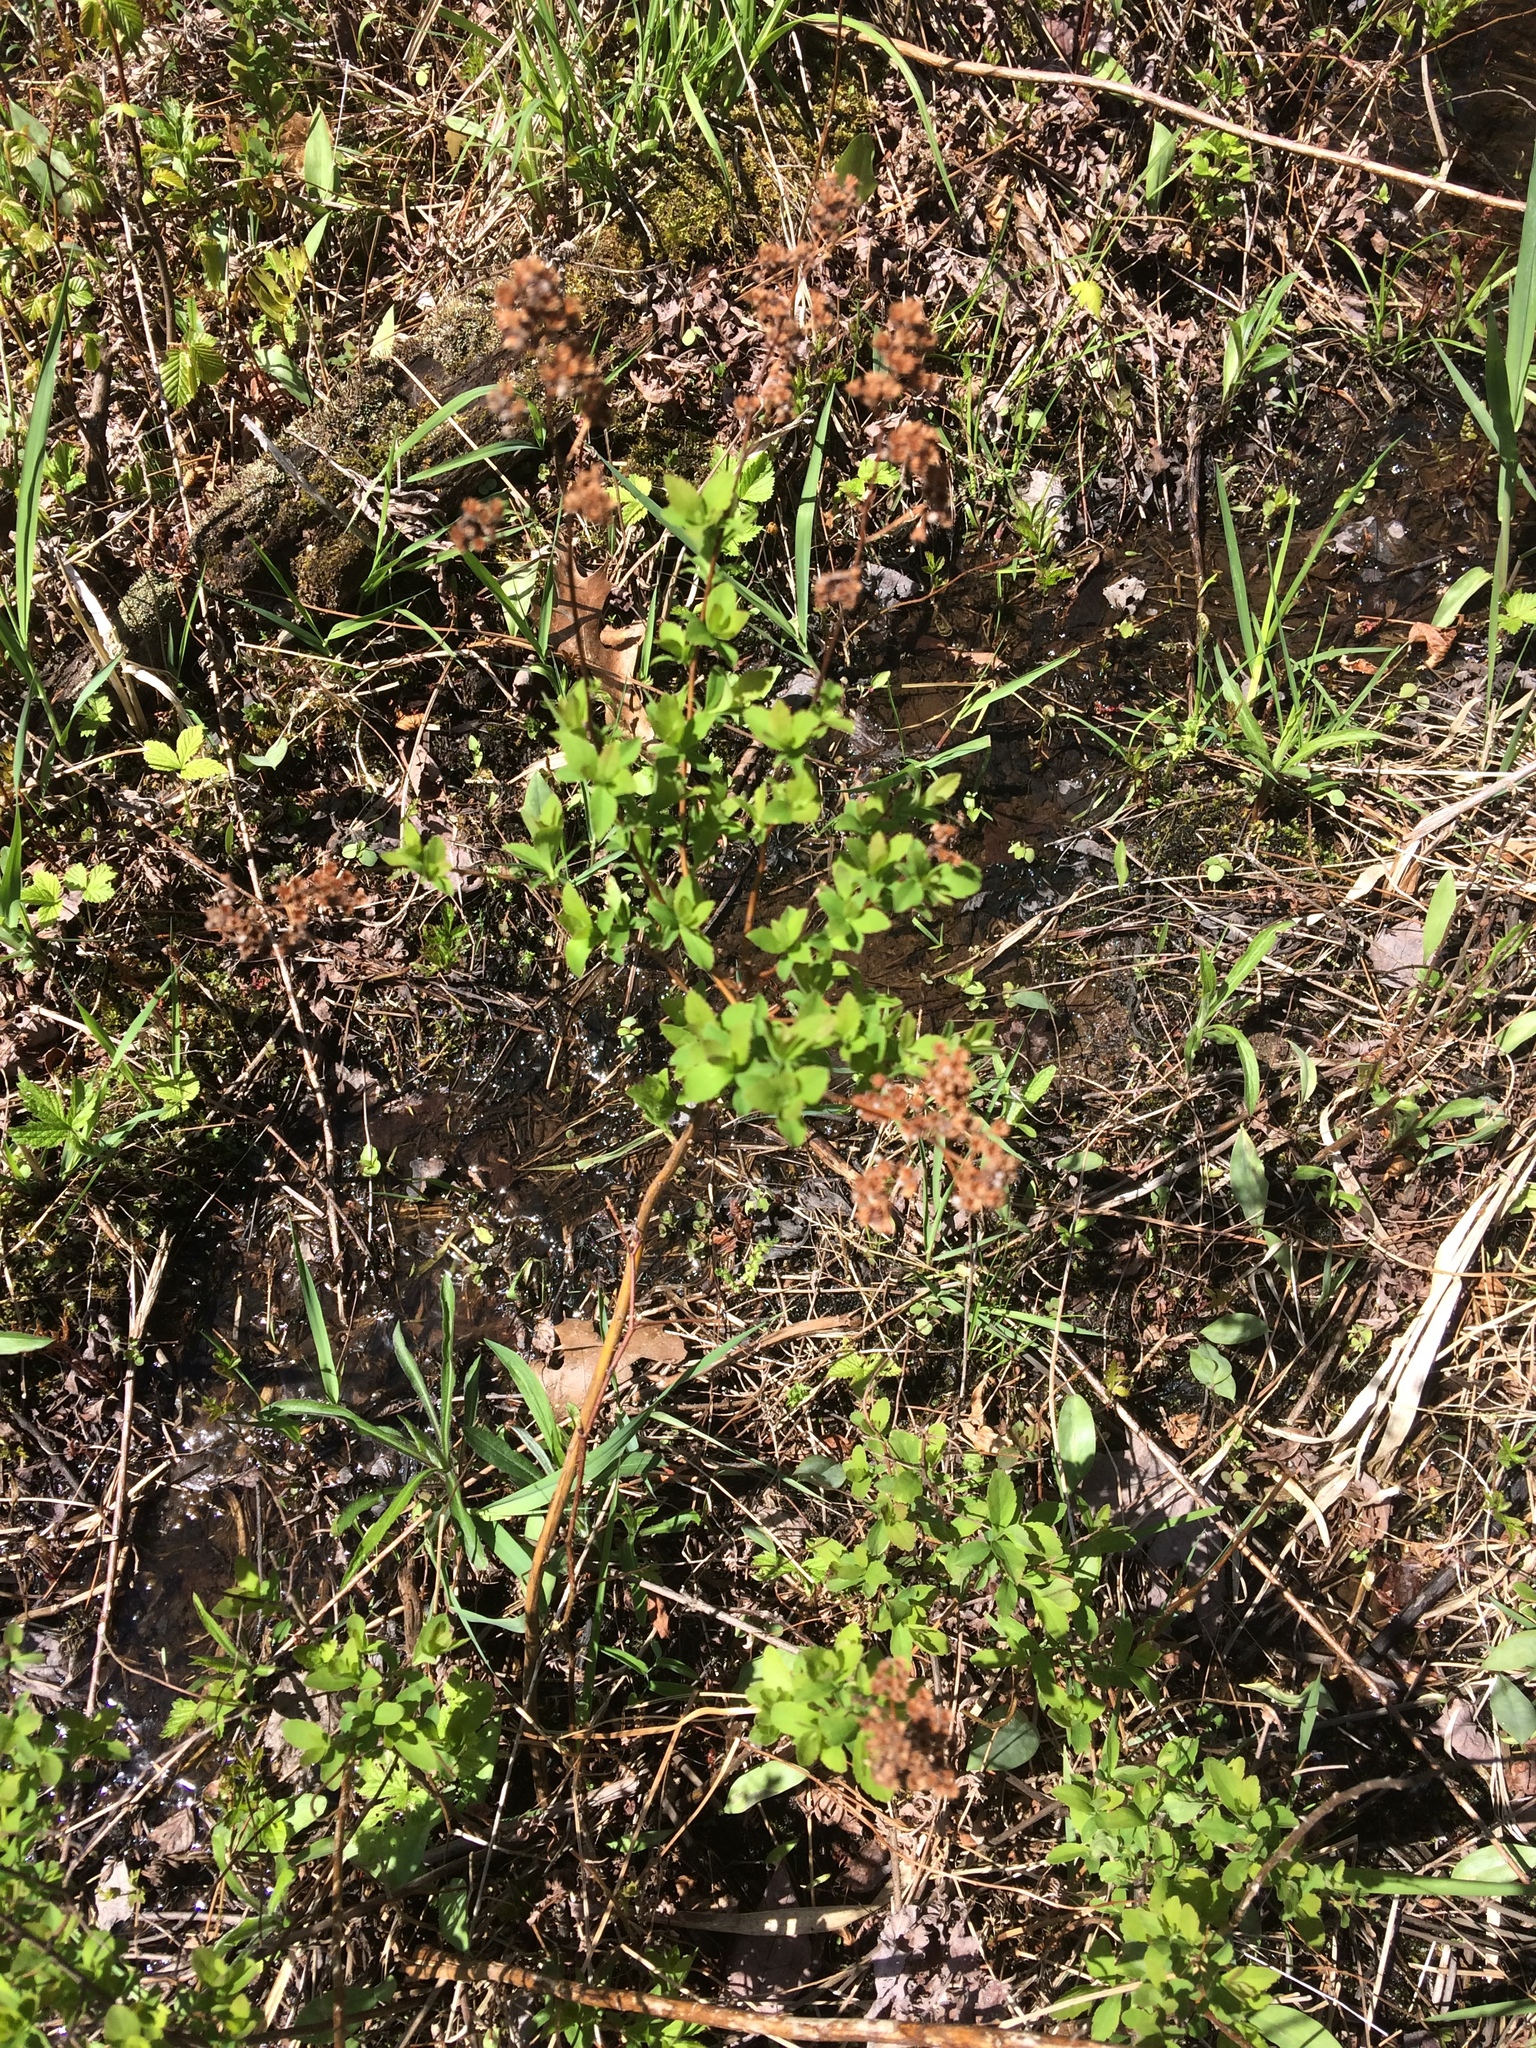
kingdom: Plantae
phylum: Tracheophyta
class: Magnoliopsida
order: Rosales
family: Rosaceae
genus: Spiraea
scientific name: Spiraea alba
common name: Pale bridewort
